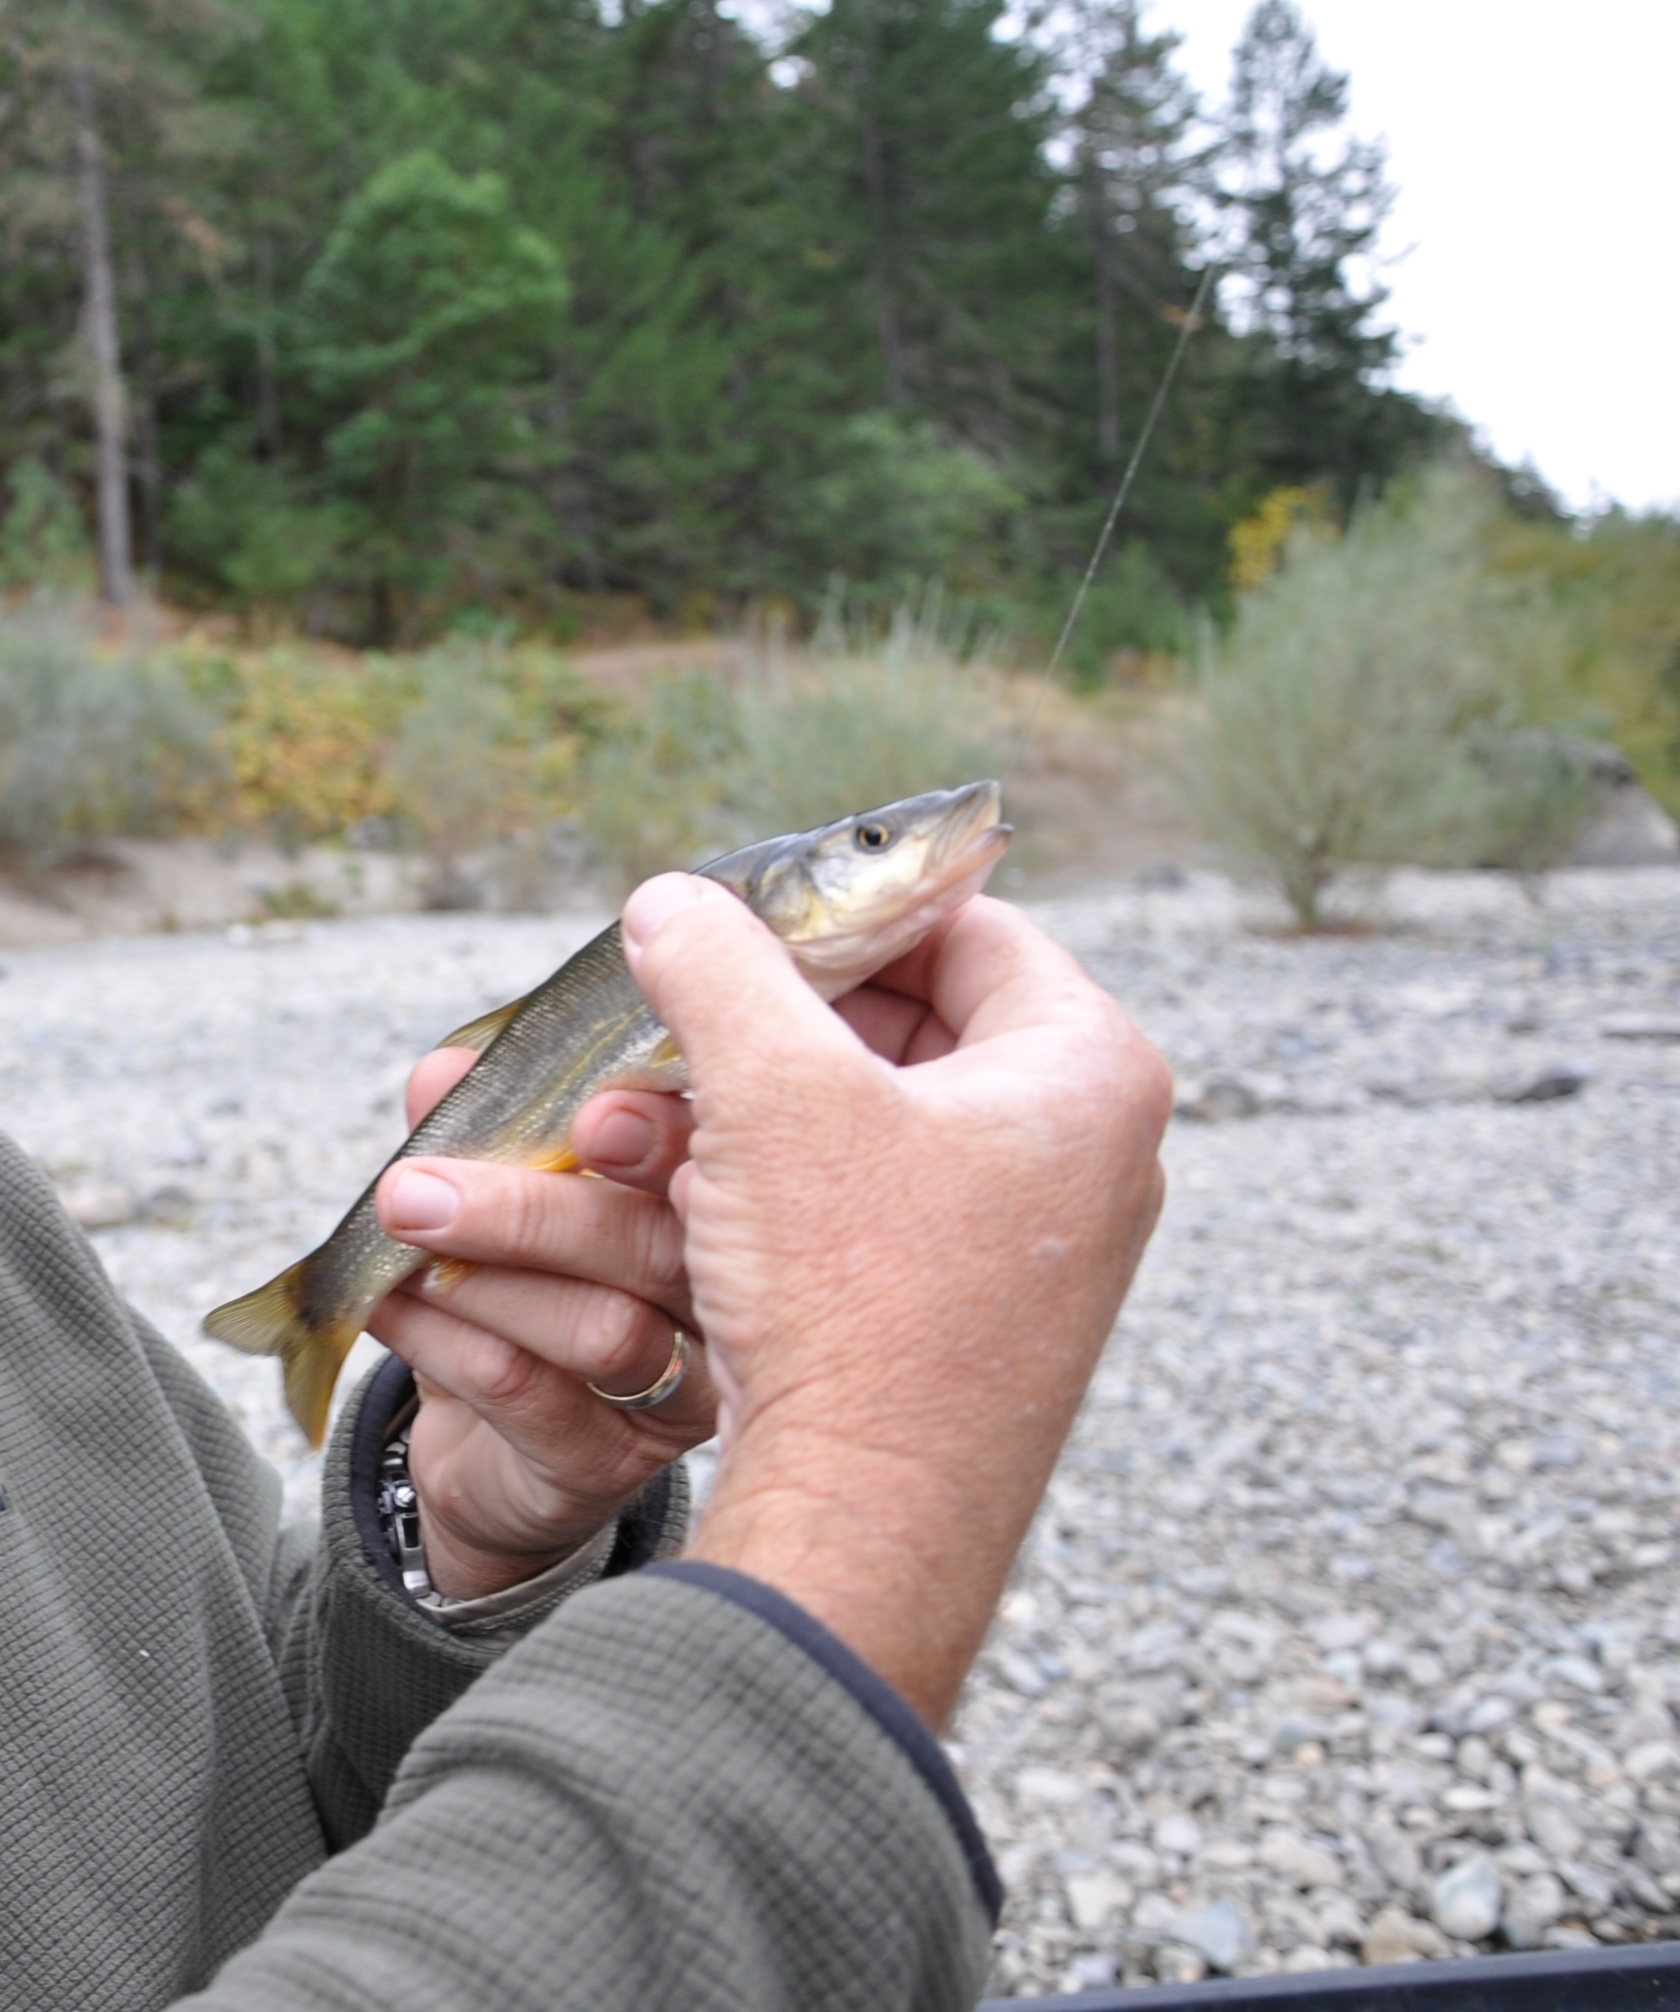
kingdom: Animalia
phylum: Chordata
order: Cypriniformes
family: Cyprinidae
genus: Ptychocheilus
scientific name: Ptychocheilus umpquae
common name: Umpqua pikeminnow
